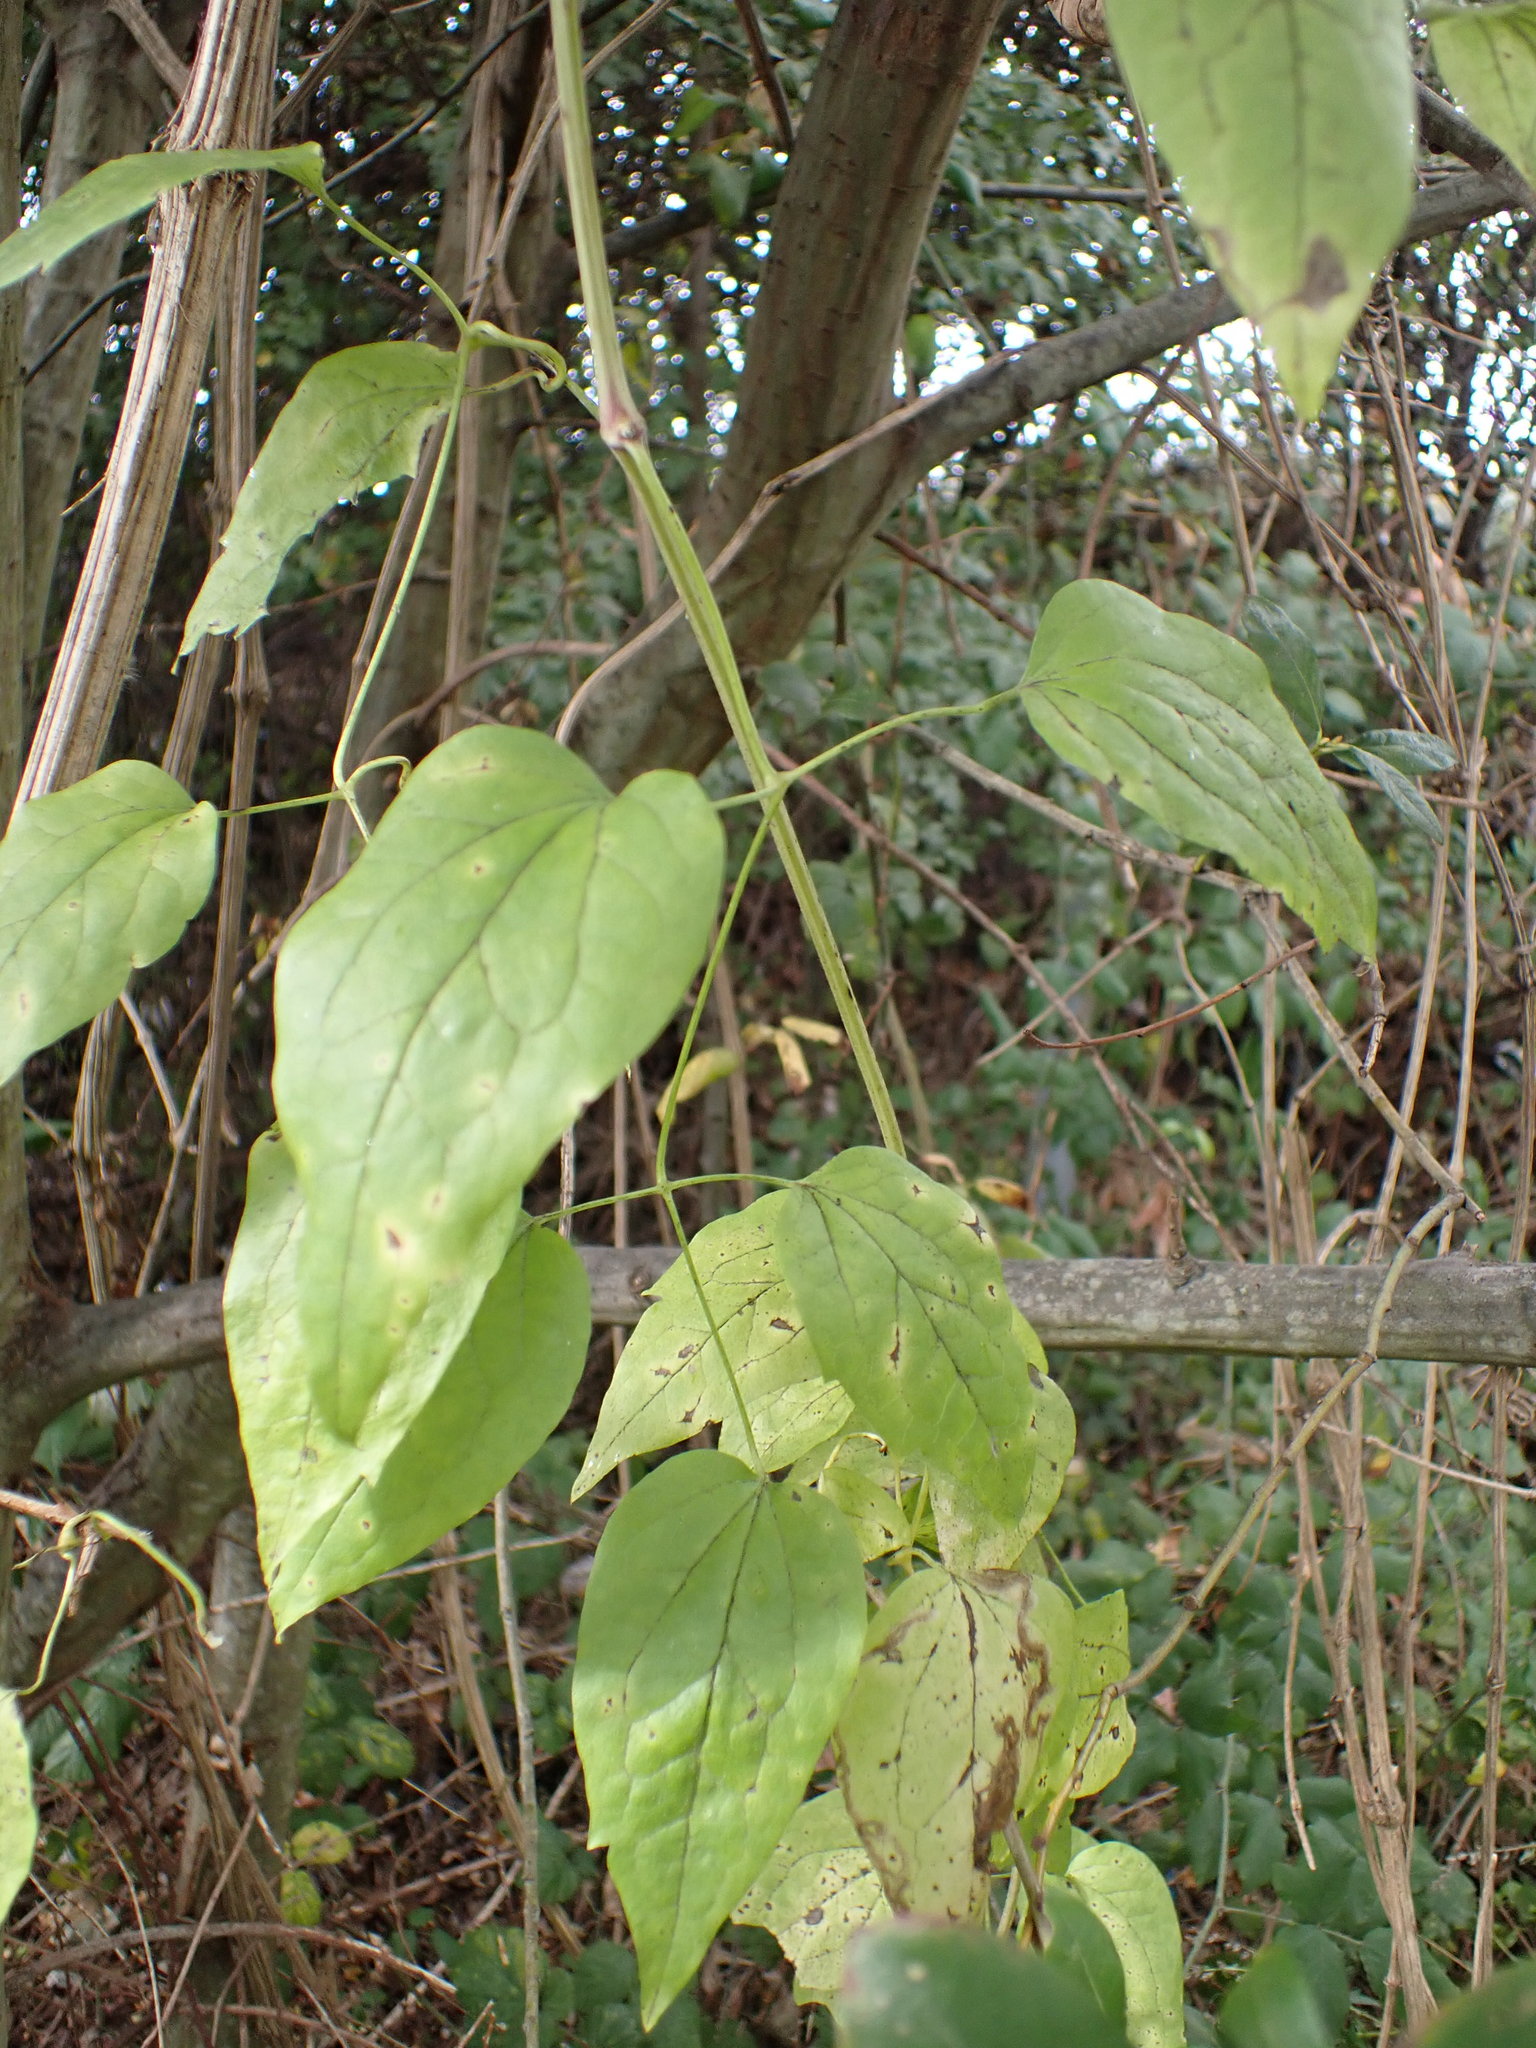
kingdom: Plantae
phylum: Tracheophyta
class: Magnoliopsida
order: Ranunculales
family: Ranunculaceae
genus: Clematis
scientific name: Clematis vitalba
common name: Evergreen clematis
